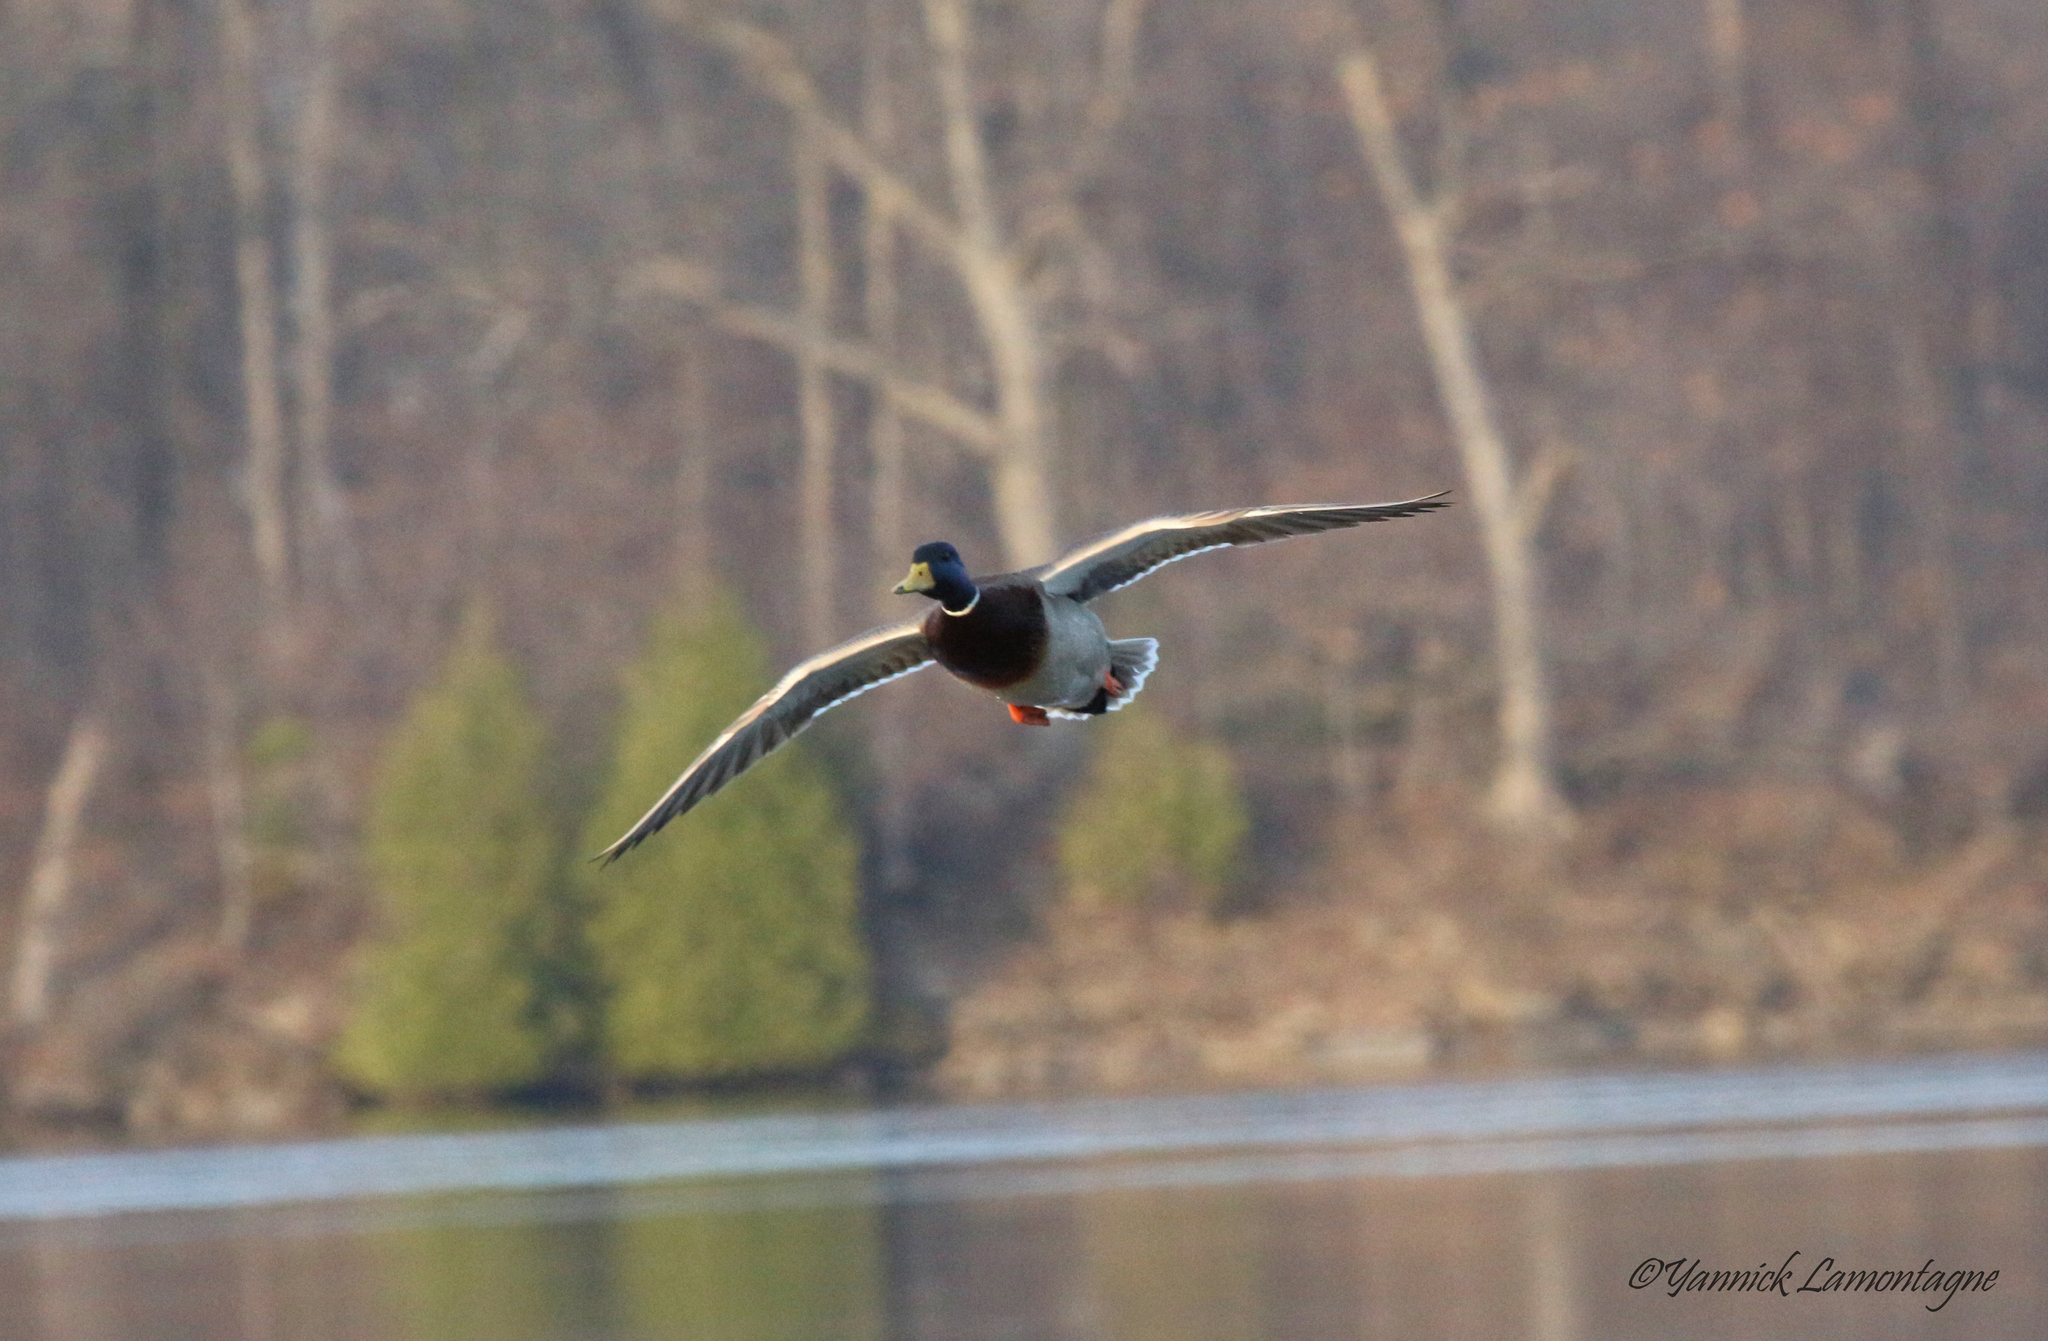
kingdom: Animalia
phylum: Chordata
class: Aves
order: Anseriformes
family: Anatidae
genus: Anas
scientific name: Anas platyrhynchos
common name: Mallard
